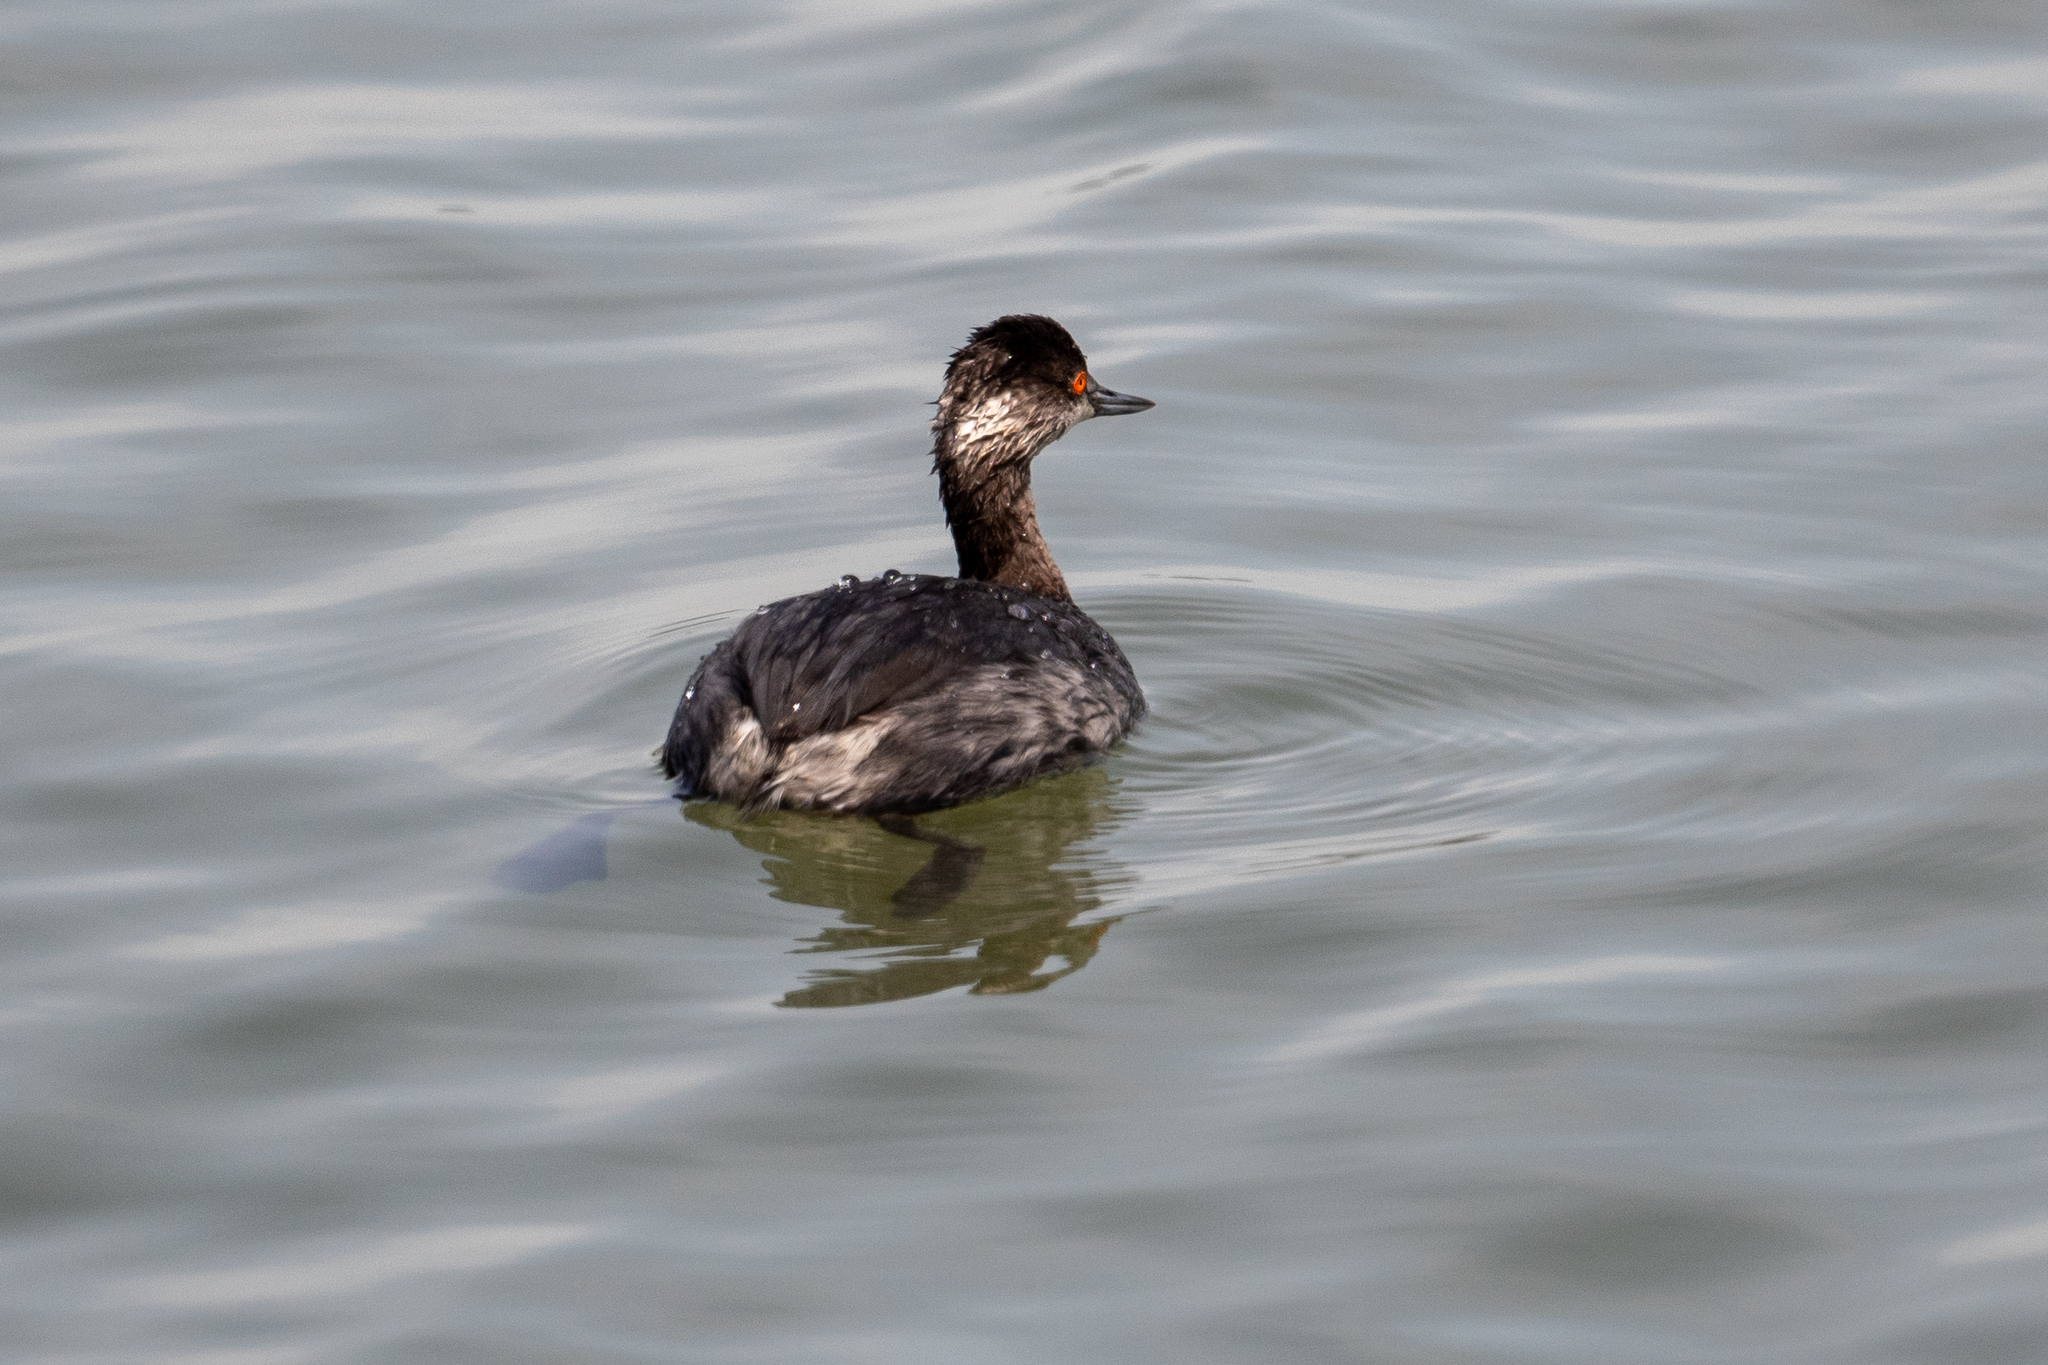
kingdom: Animalia
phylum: Chordata
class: Aves
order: Podicipediformes
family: Podicipedidae
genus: Podiceps
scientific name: Podiceps nigricollis
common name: Black-necked grebe
